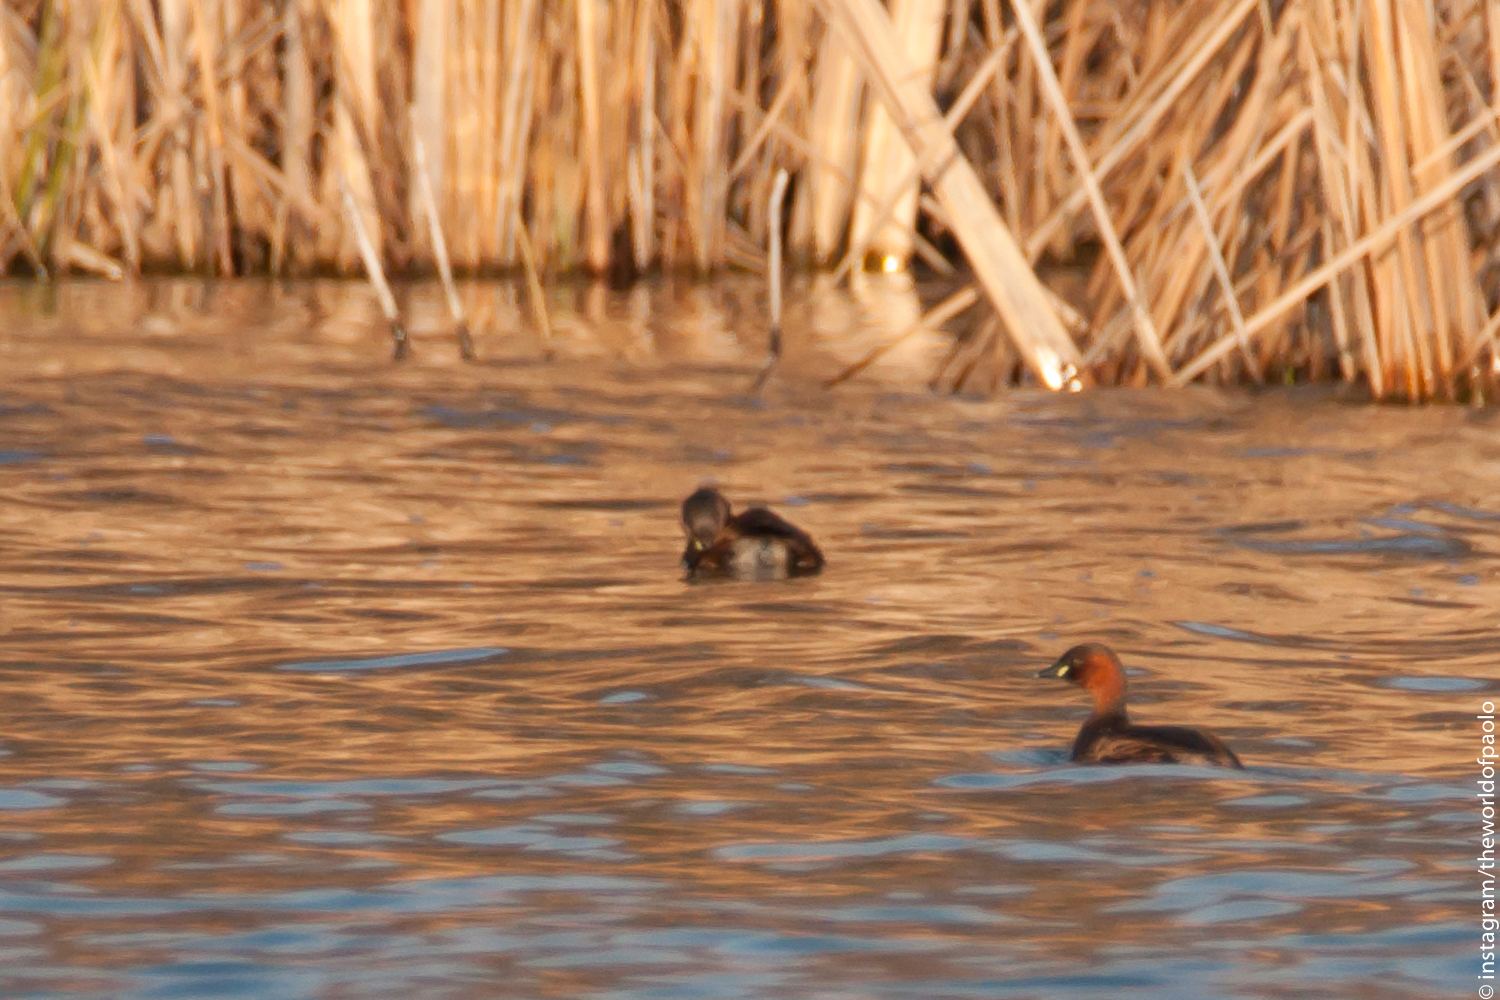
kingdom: Animalia
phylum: Chordata
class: Aves
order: Podicipediformes
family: Podicipedidae
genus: Tachybaptus
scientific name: Tachybaptus ruficollis
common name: Little grebe
